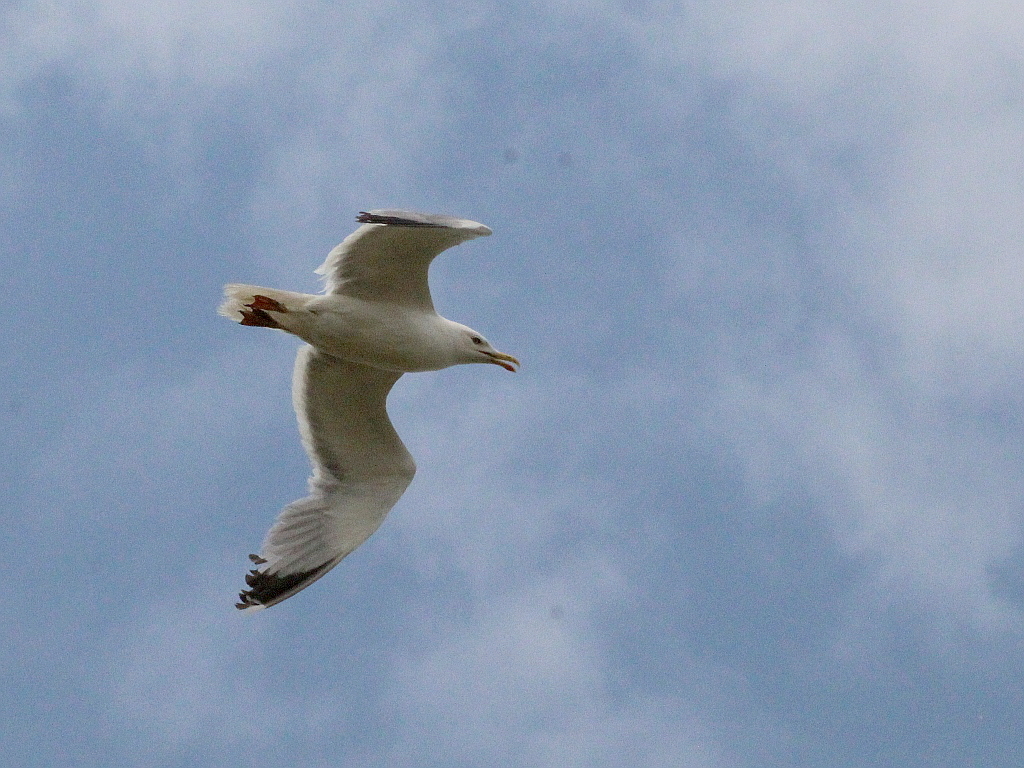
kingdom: Animalia
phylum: Chordata
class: Aves
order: Charadriiformes
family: Laridae
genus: Larus
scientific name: Larus cachinnans
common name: Caspian gull
